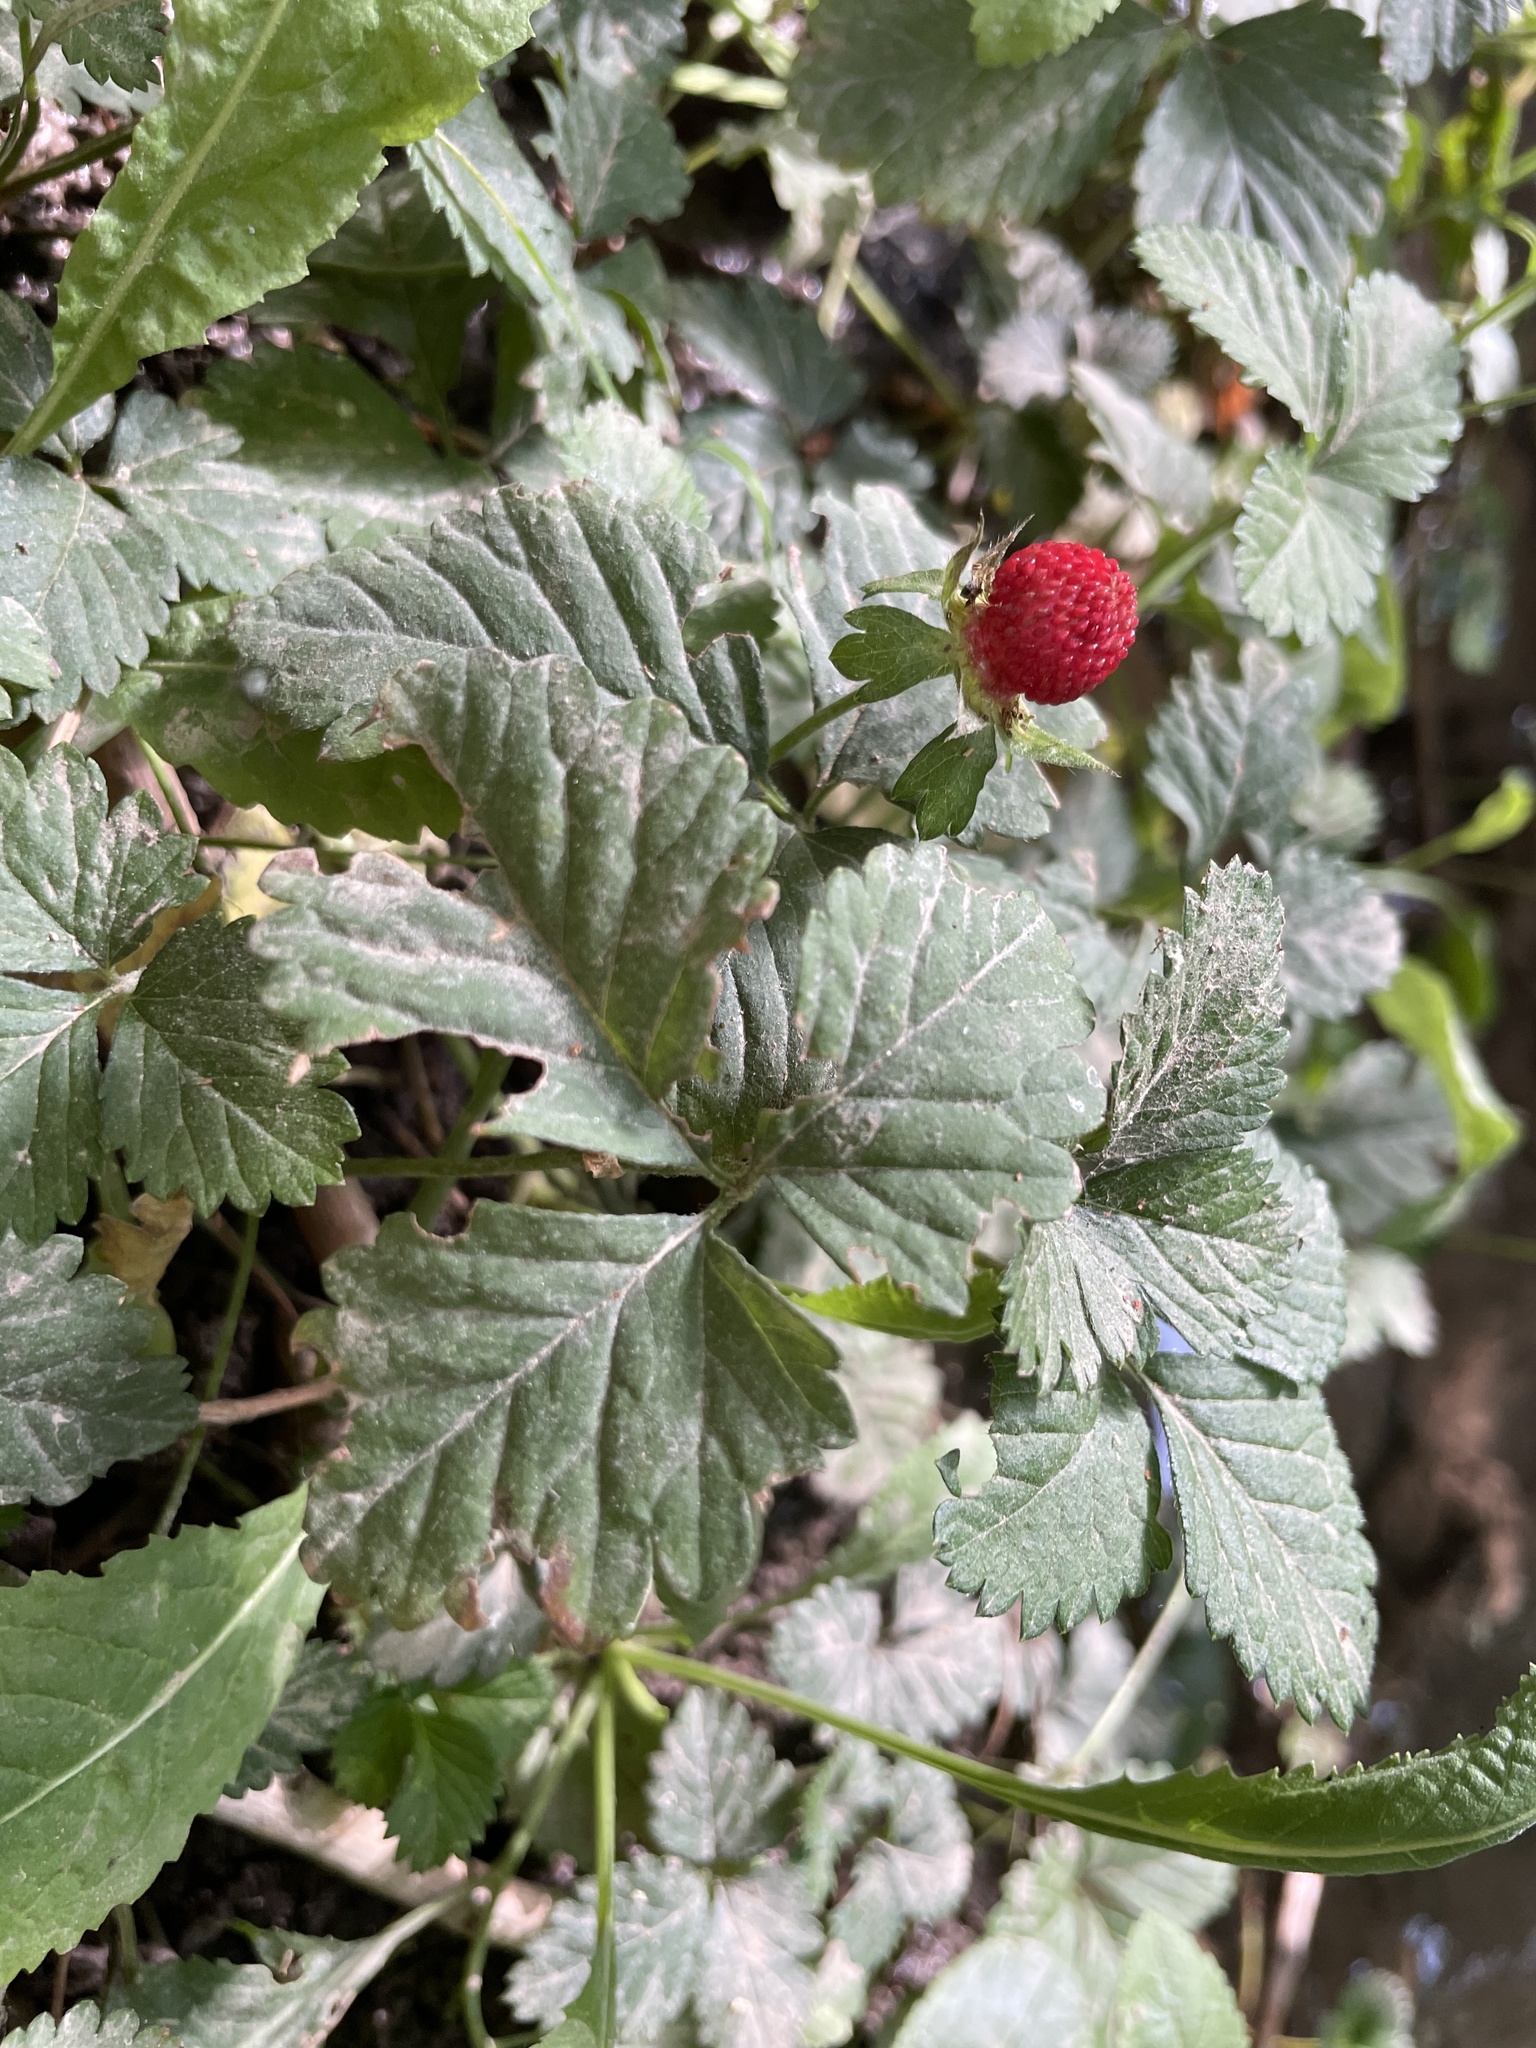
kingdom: Plantae
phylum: Tracheophyta
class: Magnoliopsida
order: Rosales
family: Rosaceae
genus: Potentilla
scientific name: Potentilla indica
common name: Yellow-flowered strawberry
